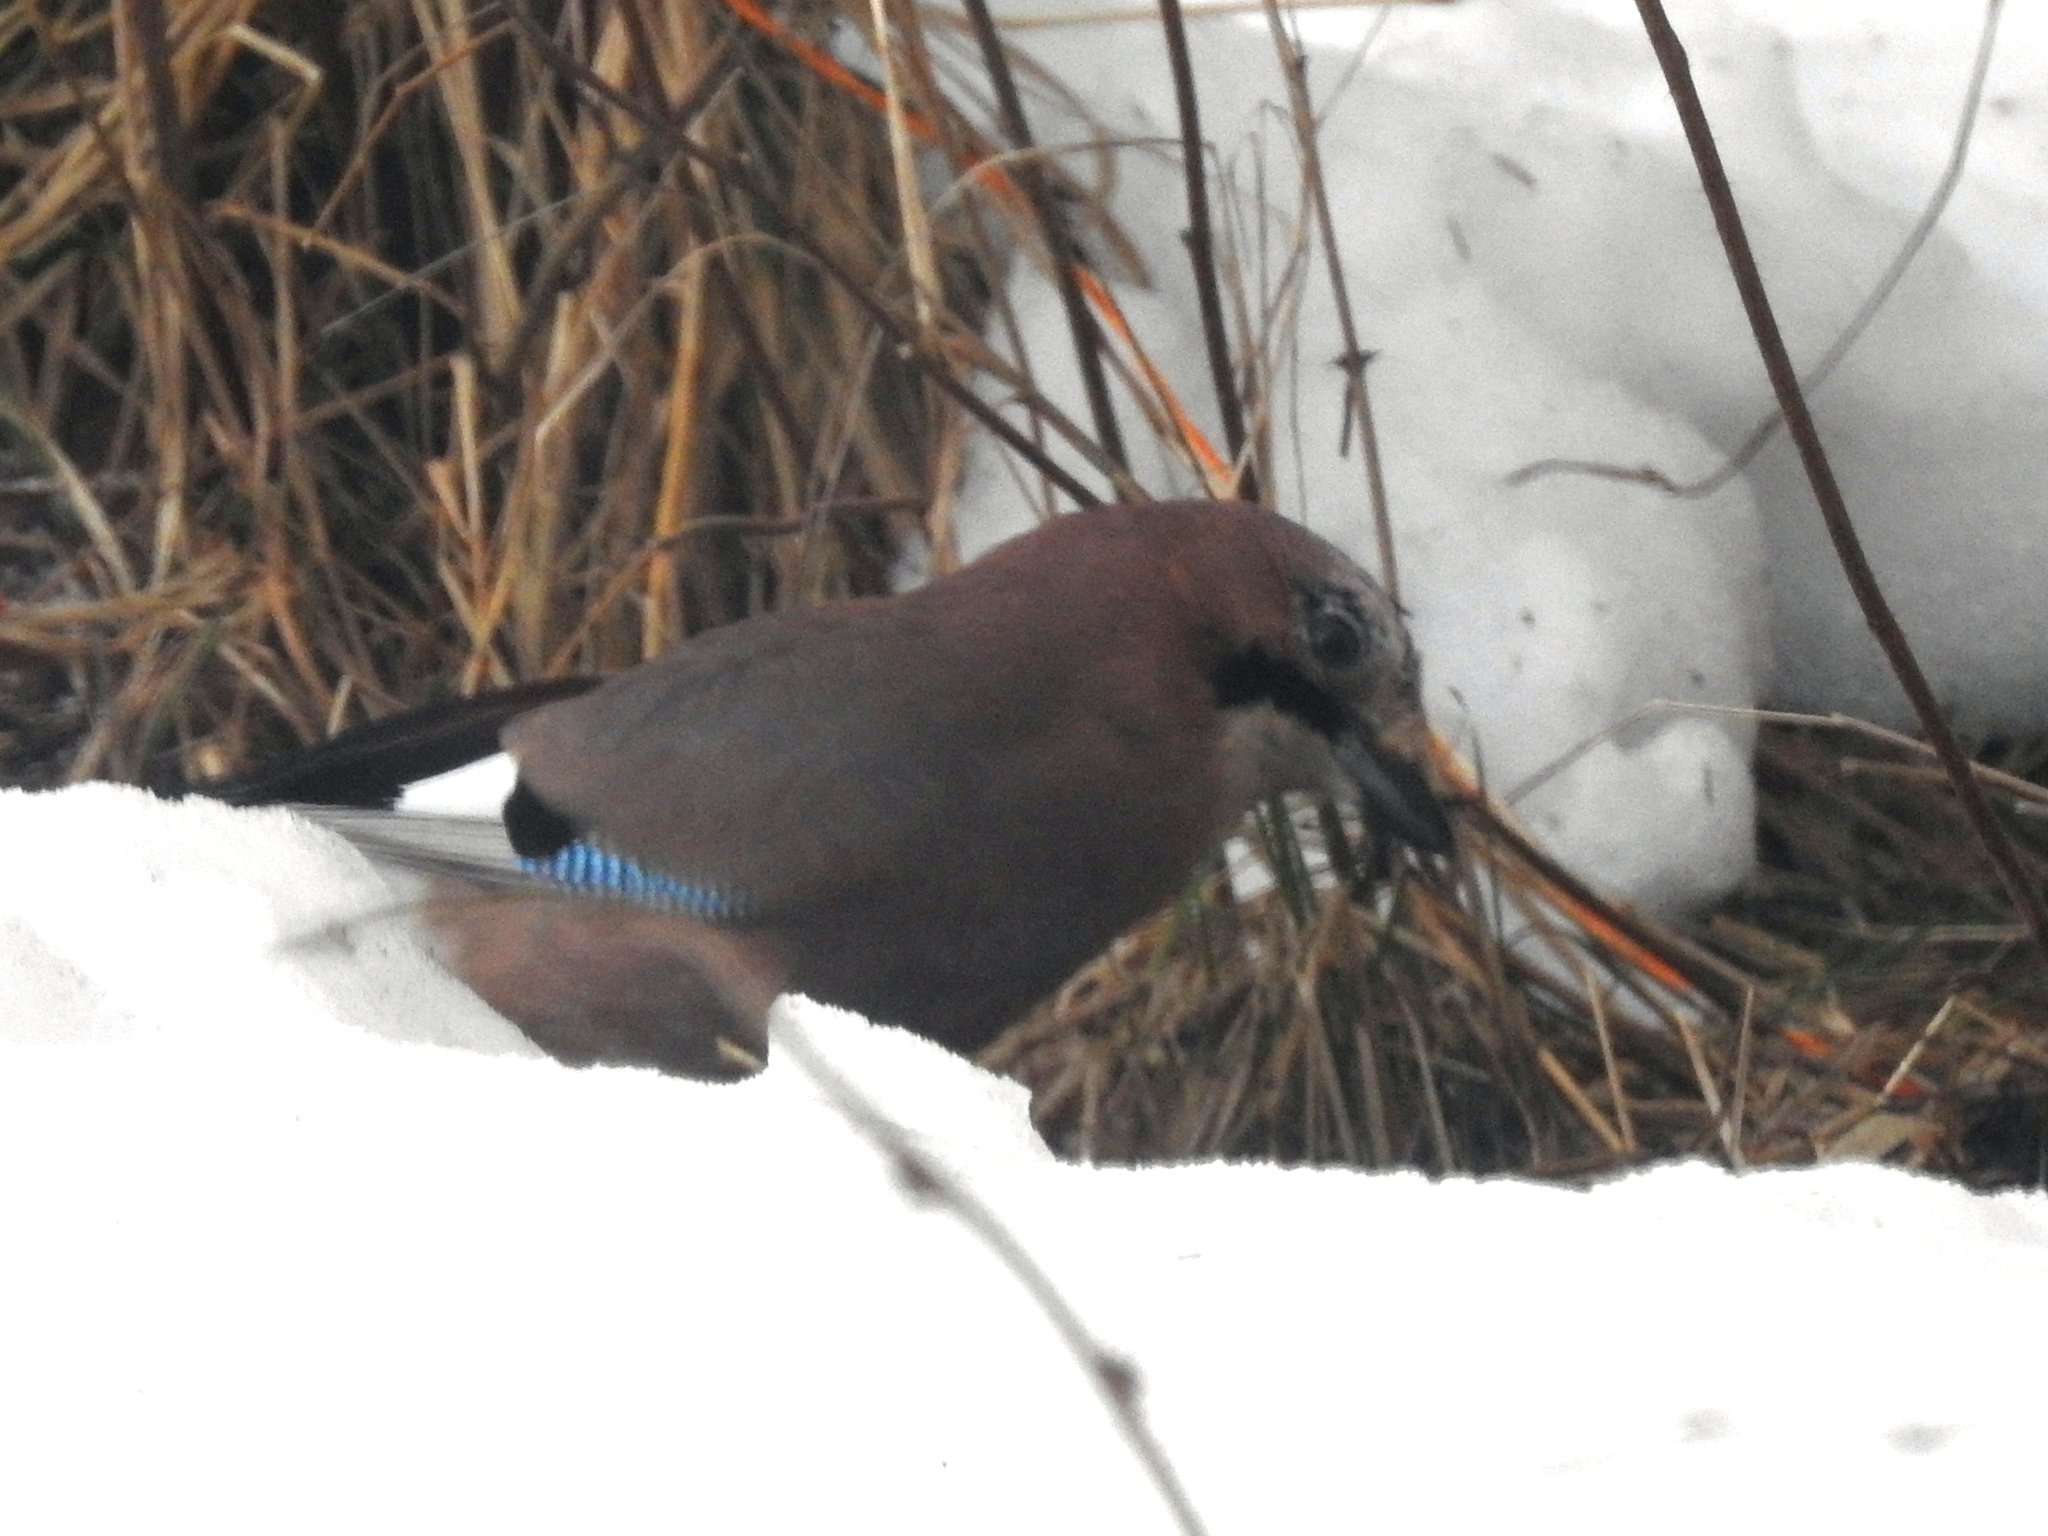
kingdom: Animalia
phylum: Chordata
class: Aves
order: Passeriformes
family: Corvidae
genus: Garrulus
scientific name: Garrulus glandarius
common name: Eurasian jay
